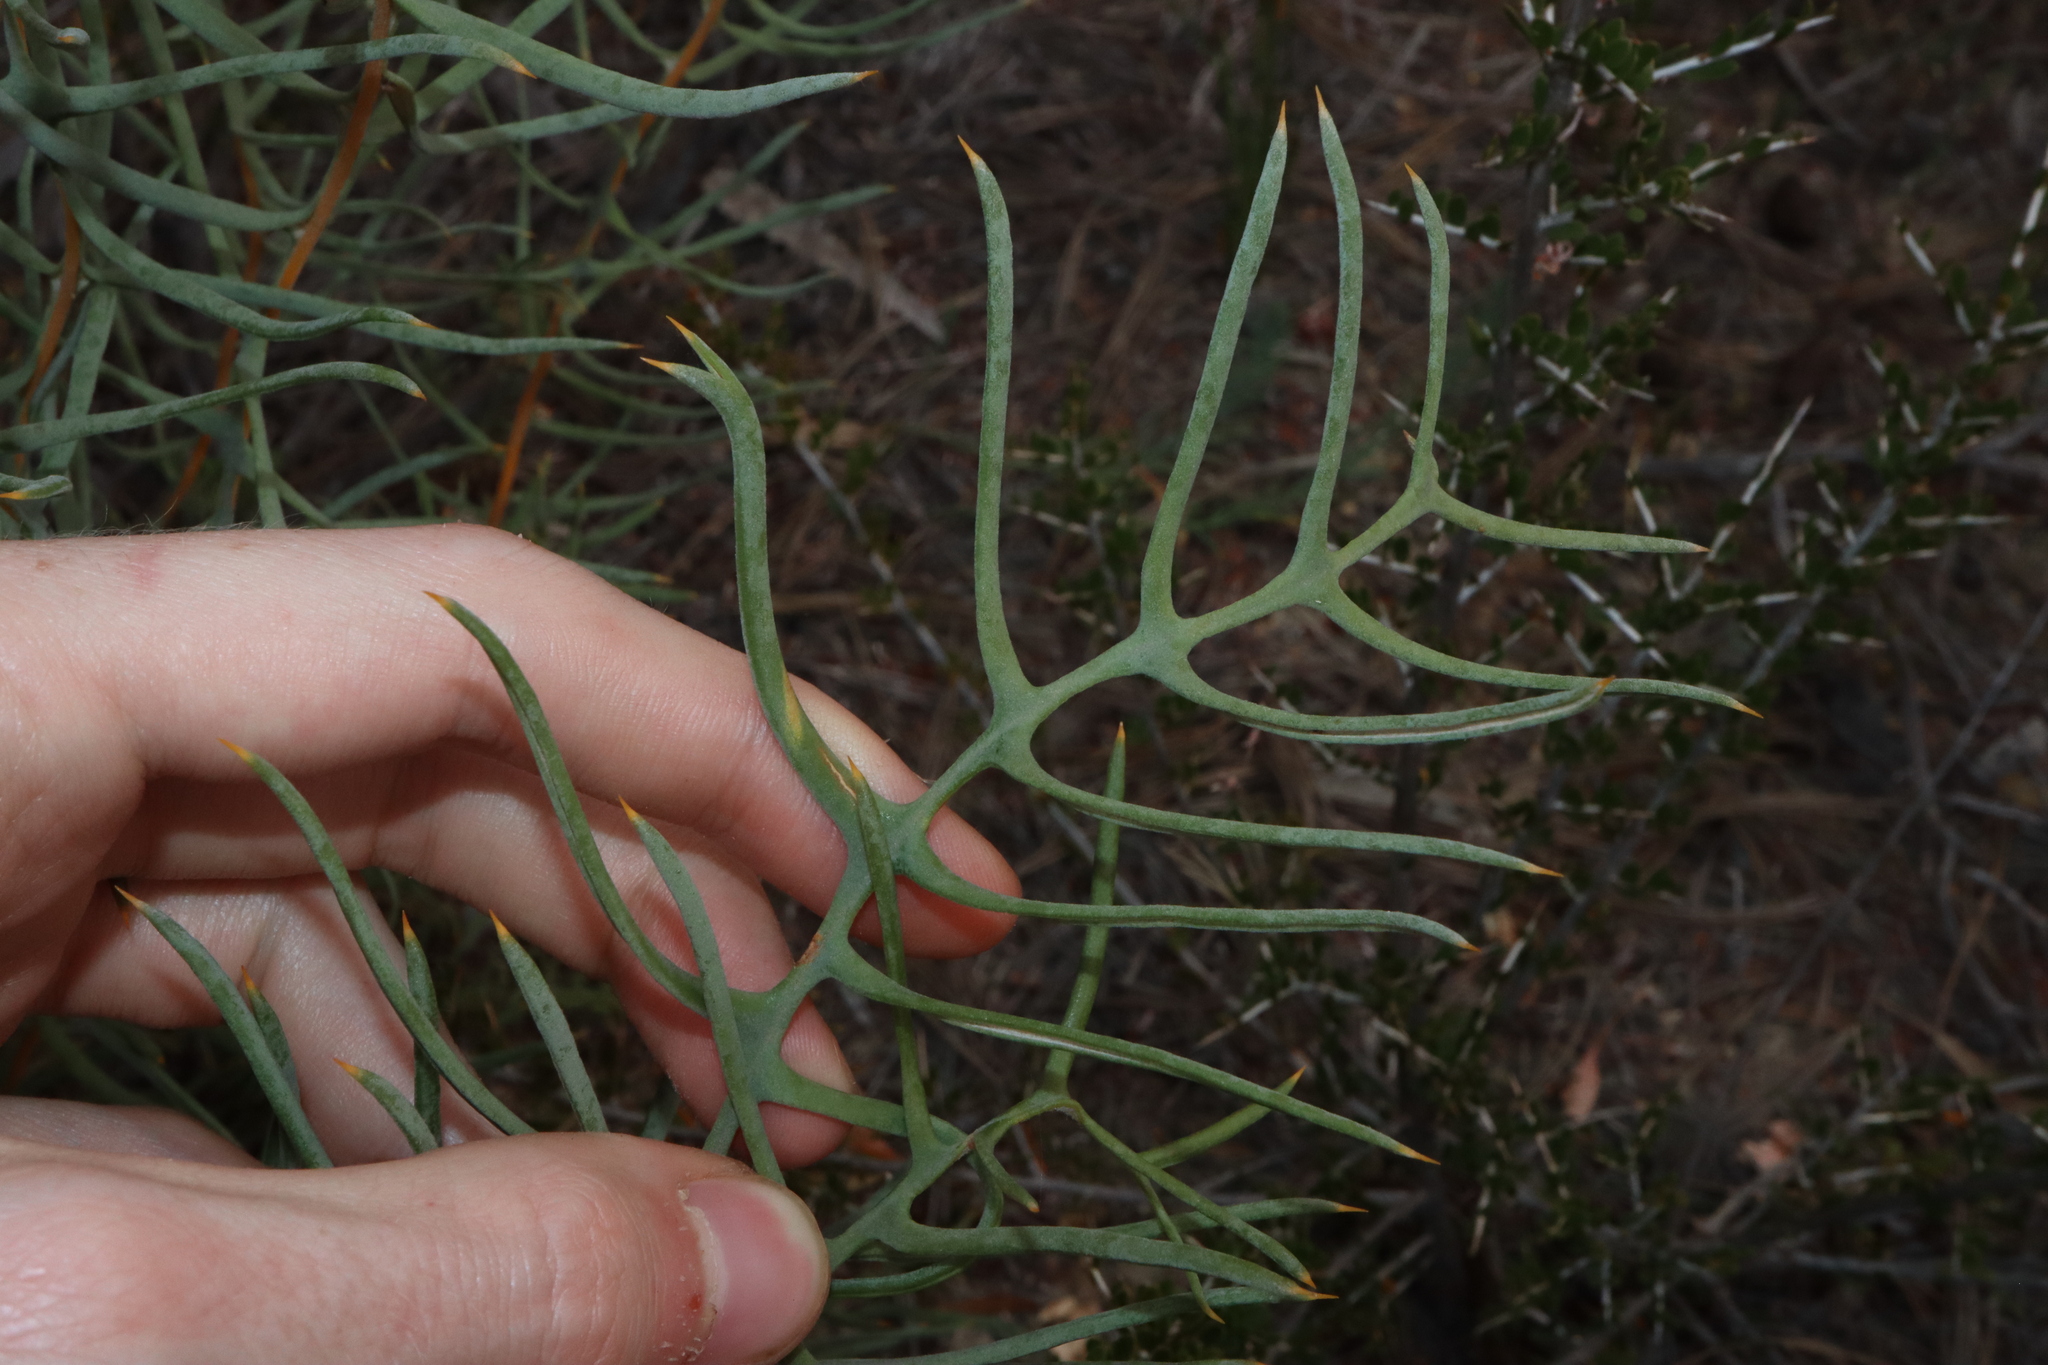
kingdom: Plantae
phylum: Tracheophyta
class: Magnoliopsida
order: Proteales
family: Proteaceae
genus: Banksia
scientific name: Banksia pteridifolia
